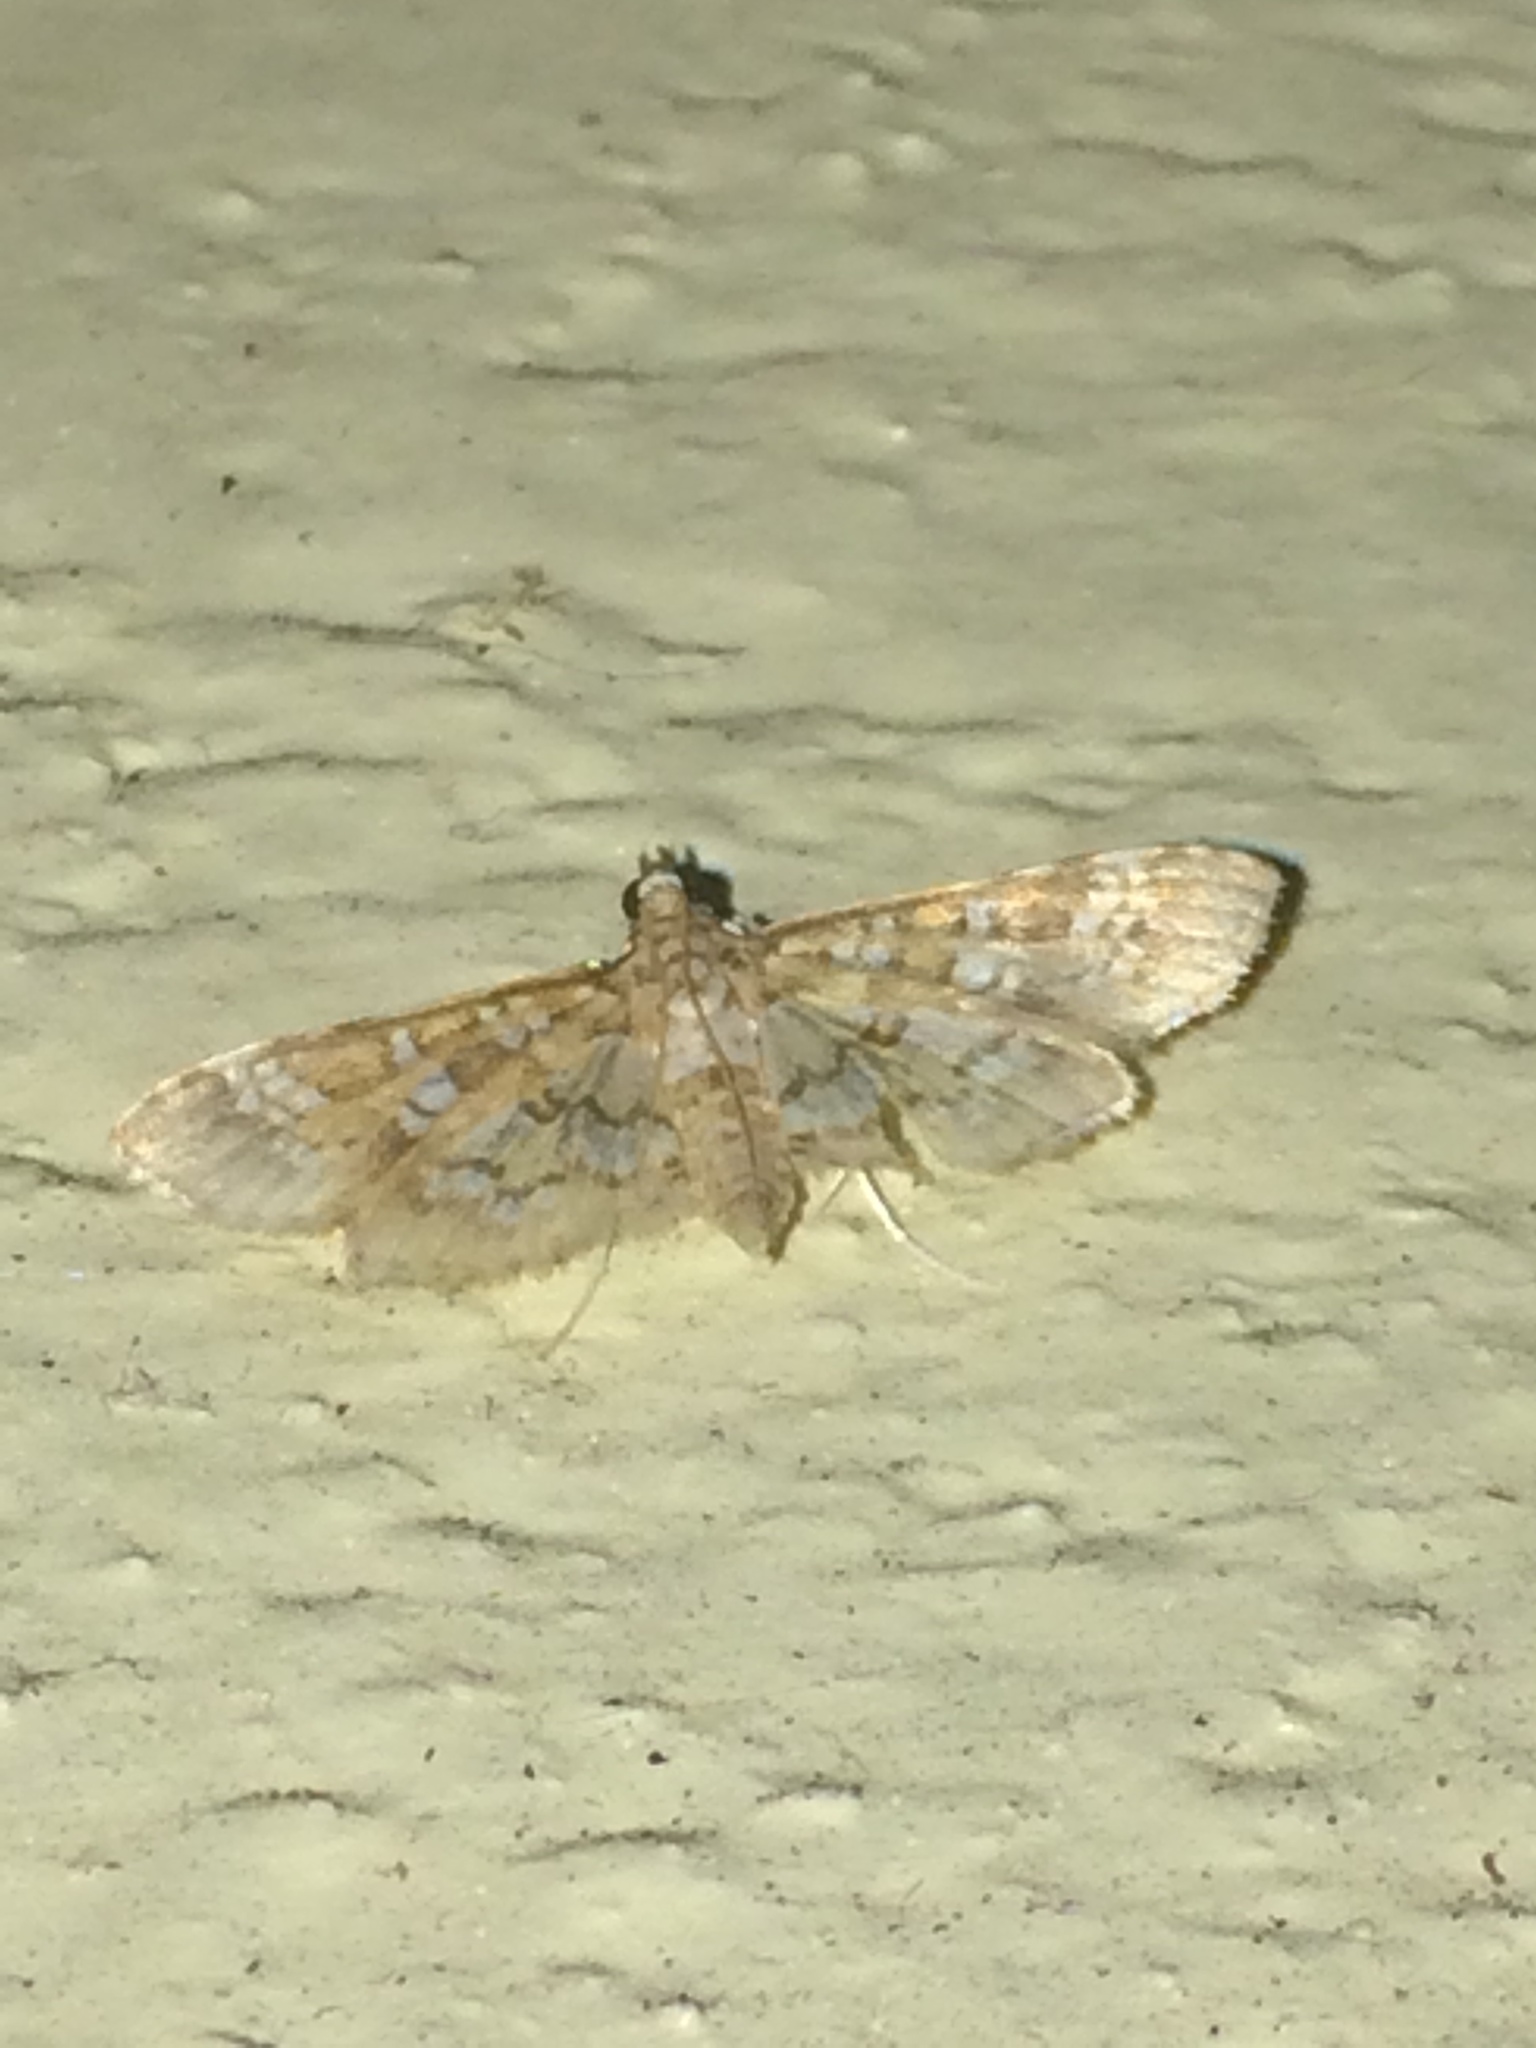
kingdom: Animalia
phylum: Arthropoda
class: Insecta
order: Lepidoptera
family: Crambidae
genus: Samea
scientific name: Samea multiplicalis
